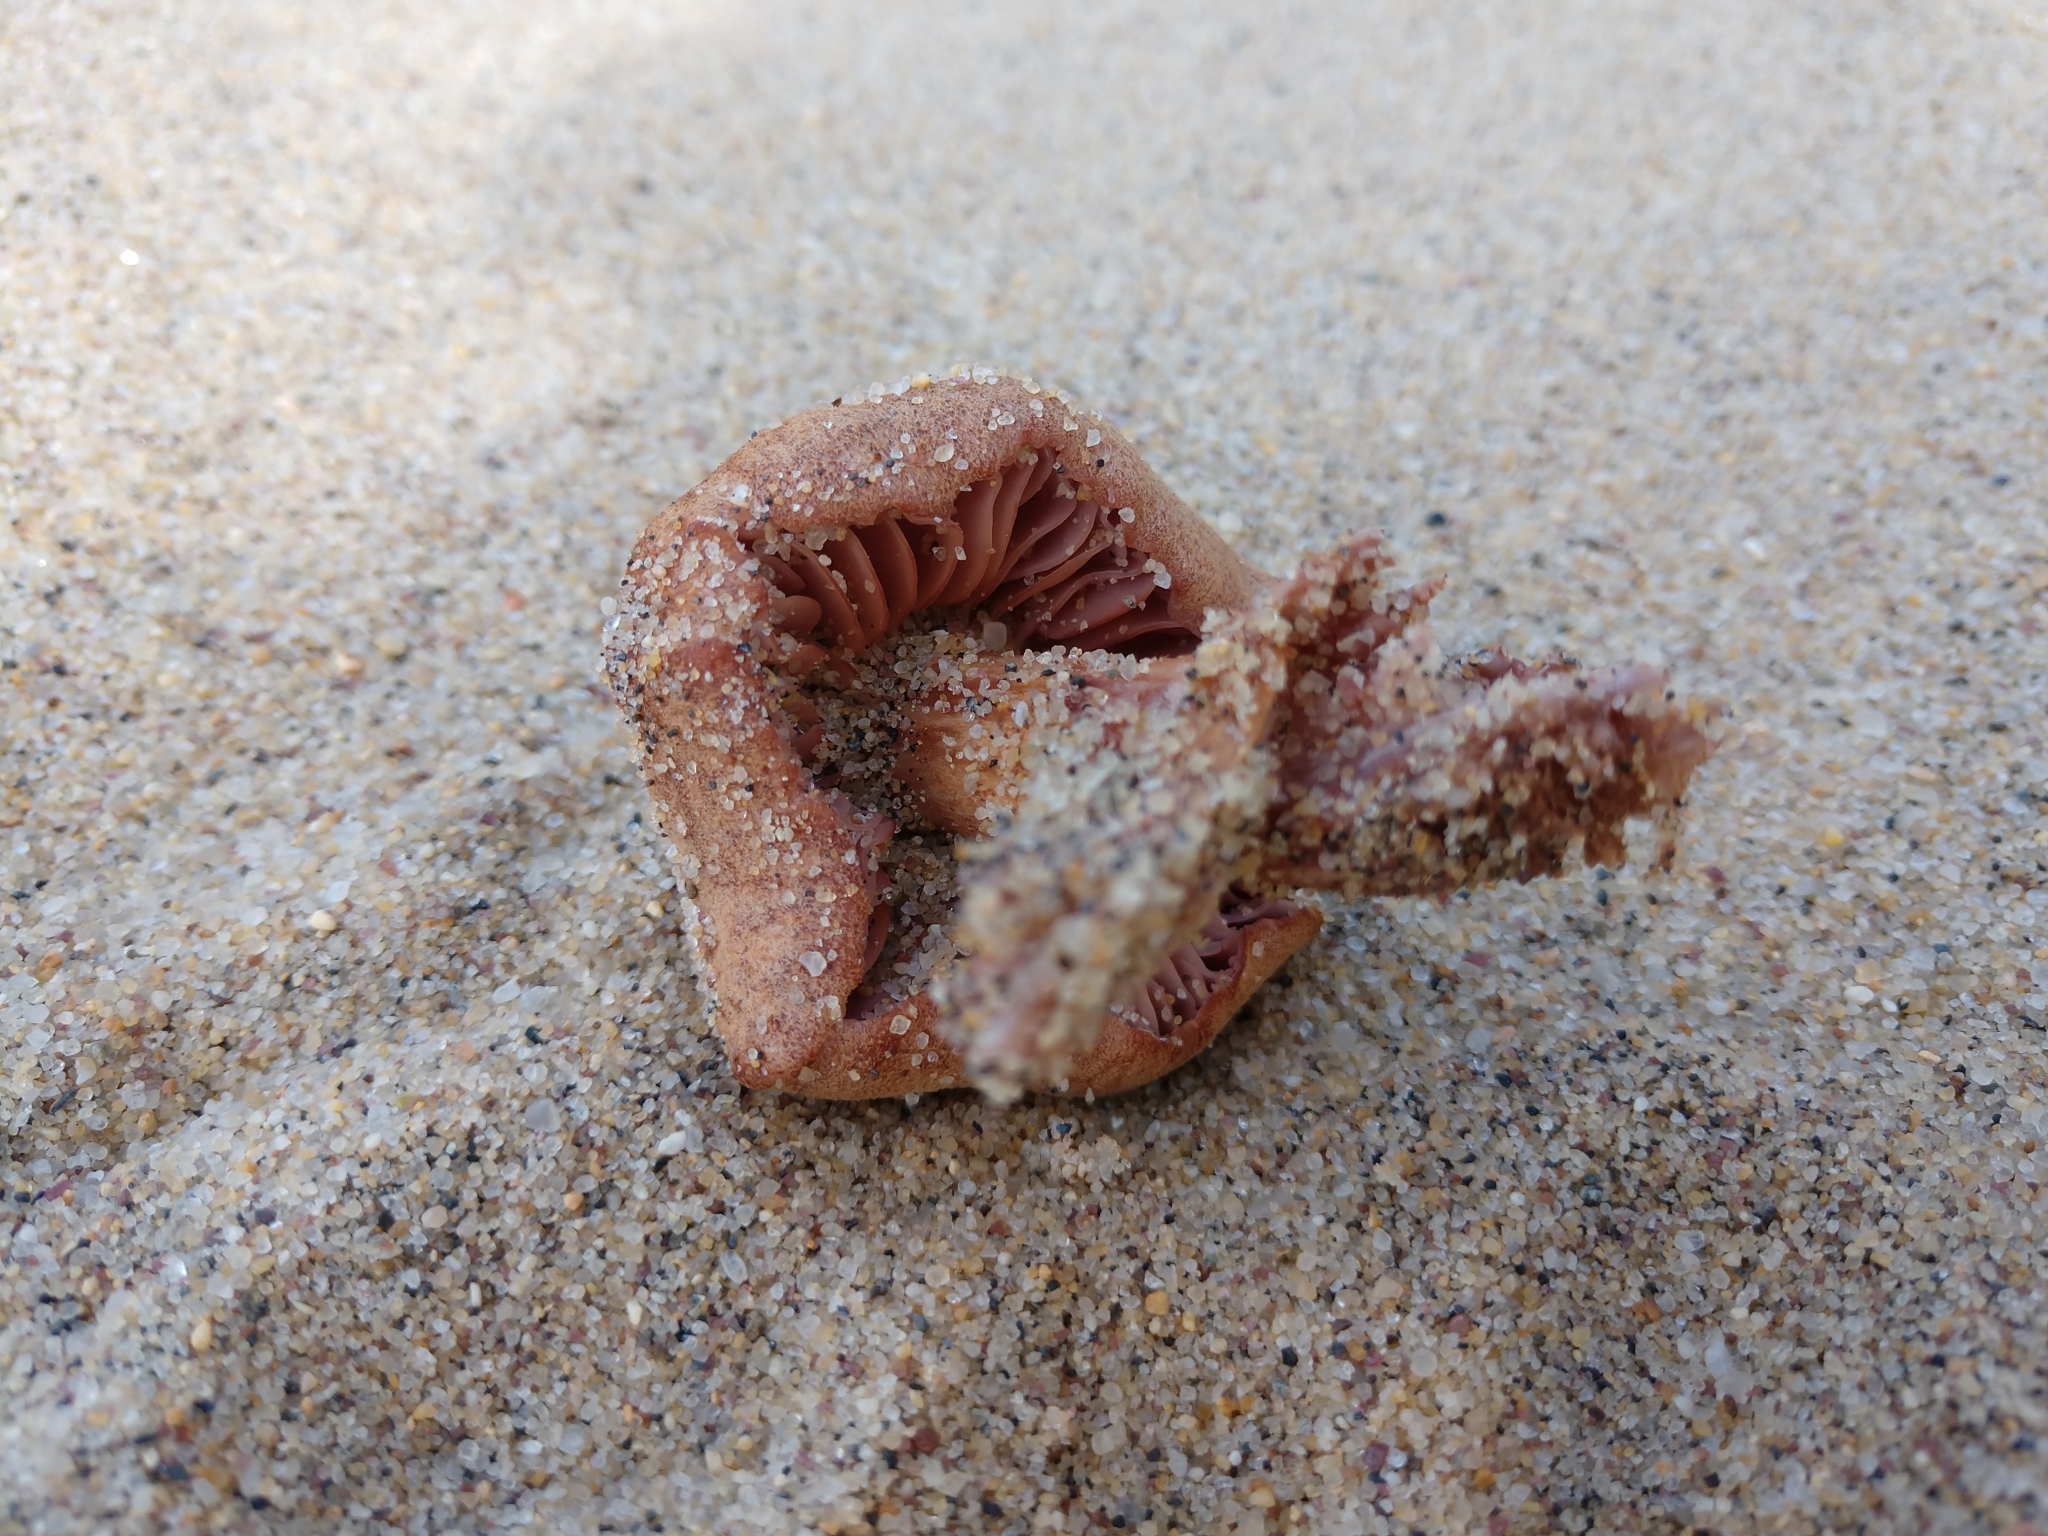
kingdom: Fungi
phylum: Basidiomycota
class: Agaricomycetes
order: Agaricales
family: Hydnangiaceae
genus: Laccaria
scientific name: Laccaria trullissata
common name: Sandy laccaria
